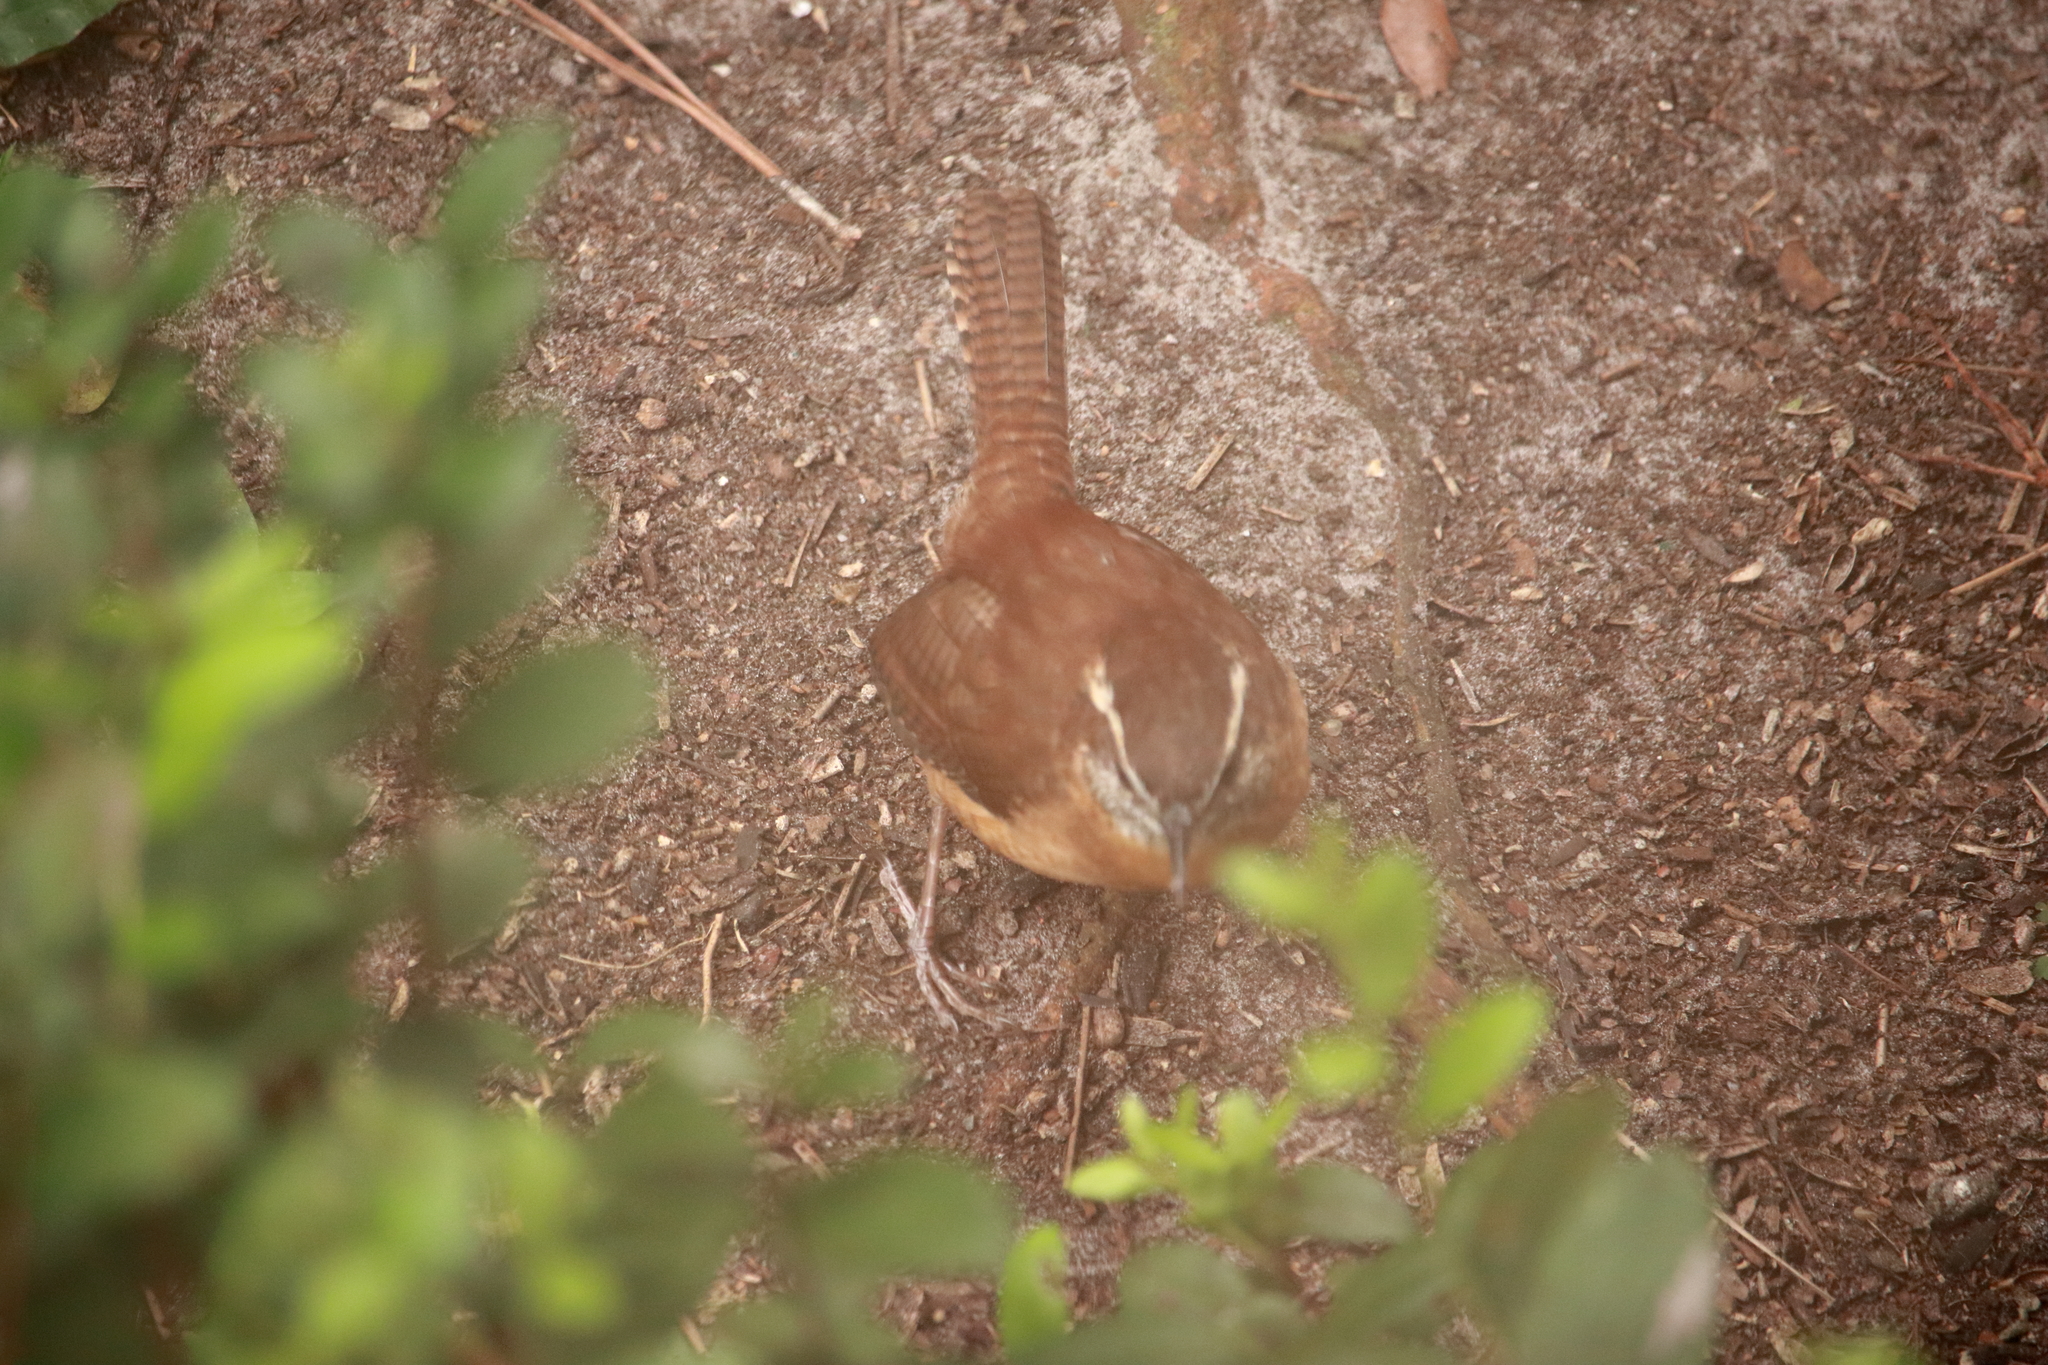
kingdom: Animalia
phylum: Chordata
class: Aves
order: Passeriformes
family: Troglodytidae
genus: Thryothorus
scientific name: Thryothorus ludovicianus
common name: Carolina wren
